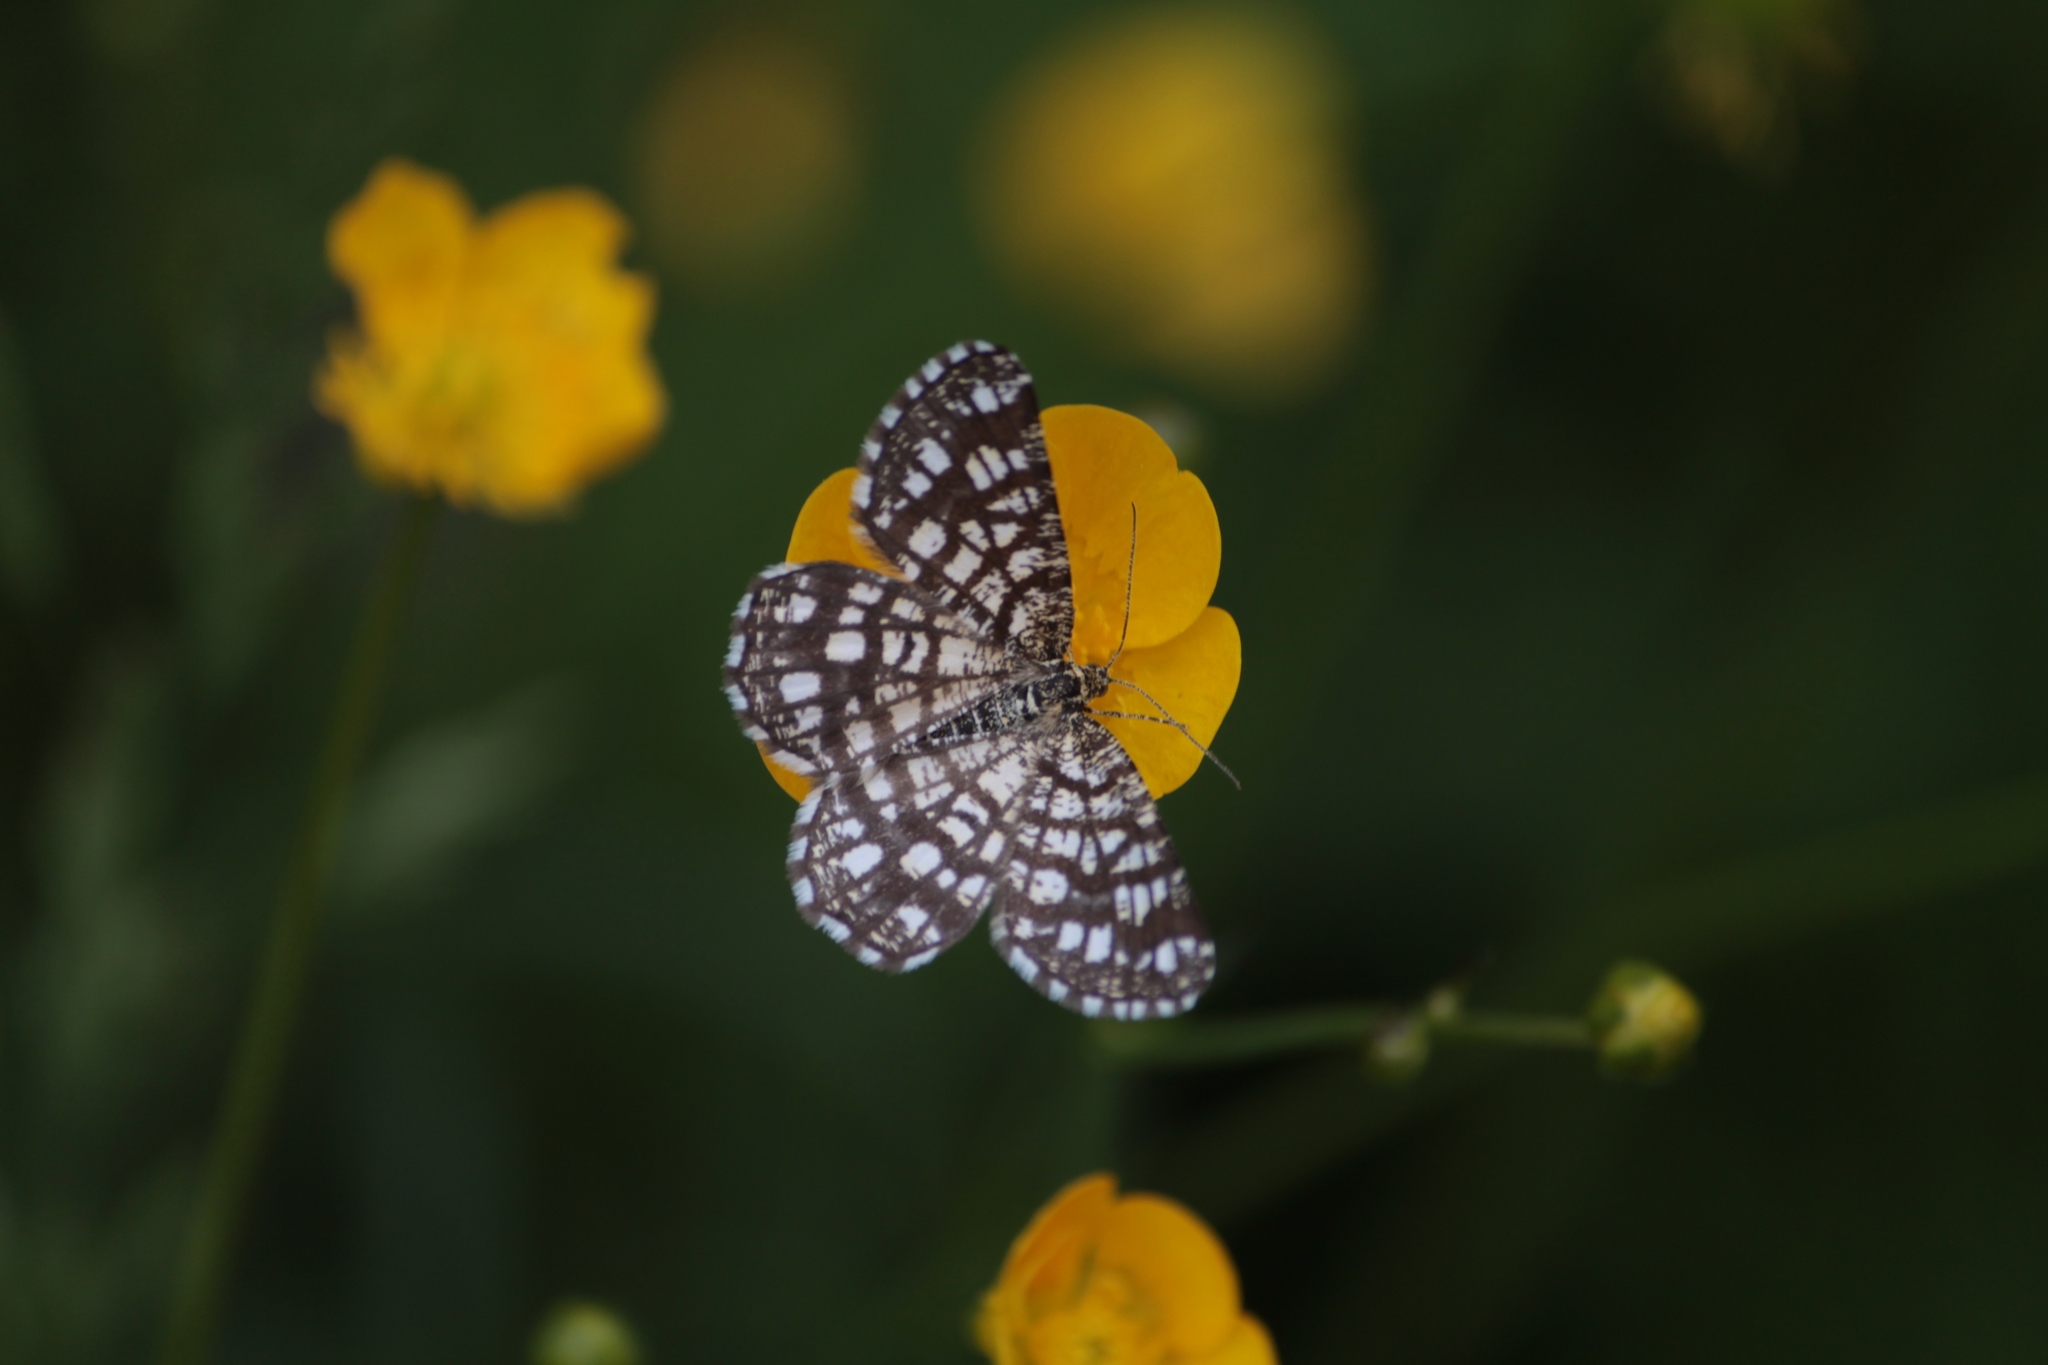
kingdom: Animalia
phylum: Arthropoda
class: Insecta
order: Lepidoptera
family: Geometridae
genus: Chiasmia
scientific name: Chiasmia clathrata
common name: Latticed heath
